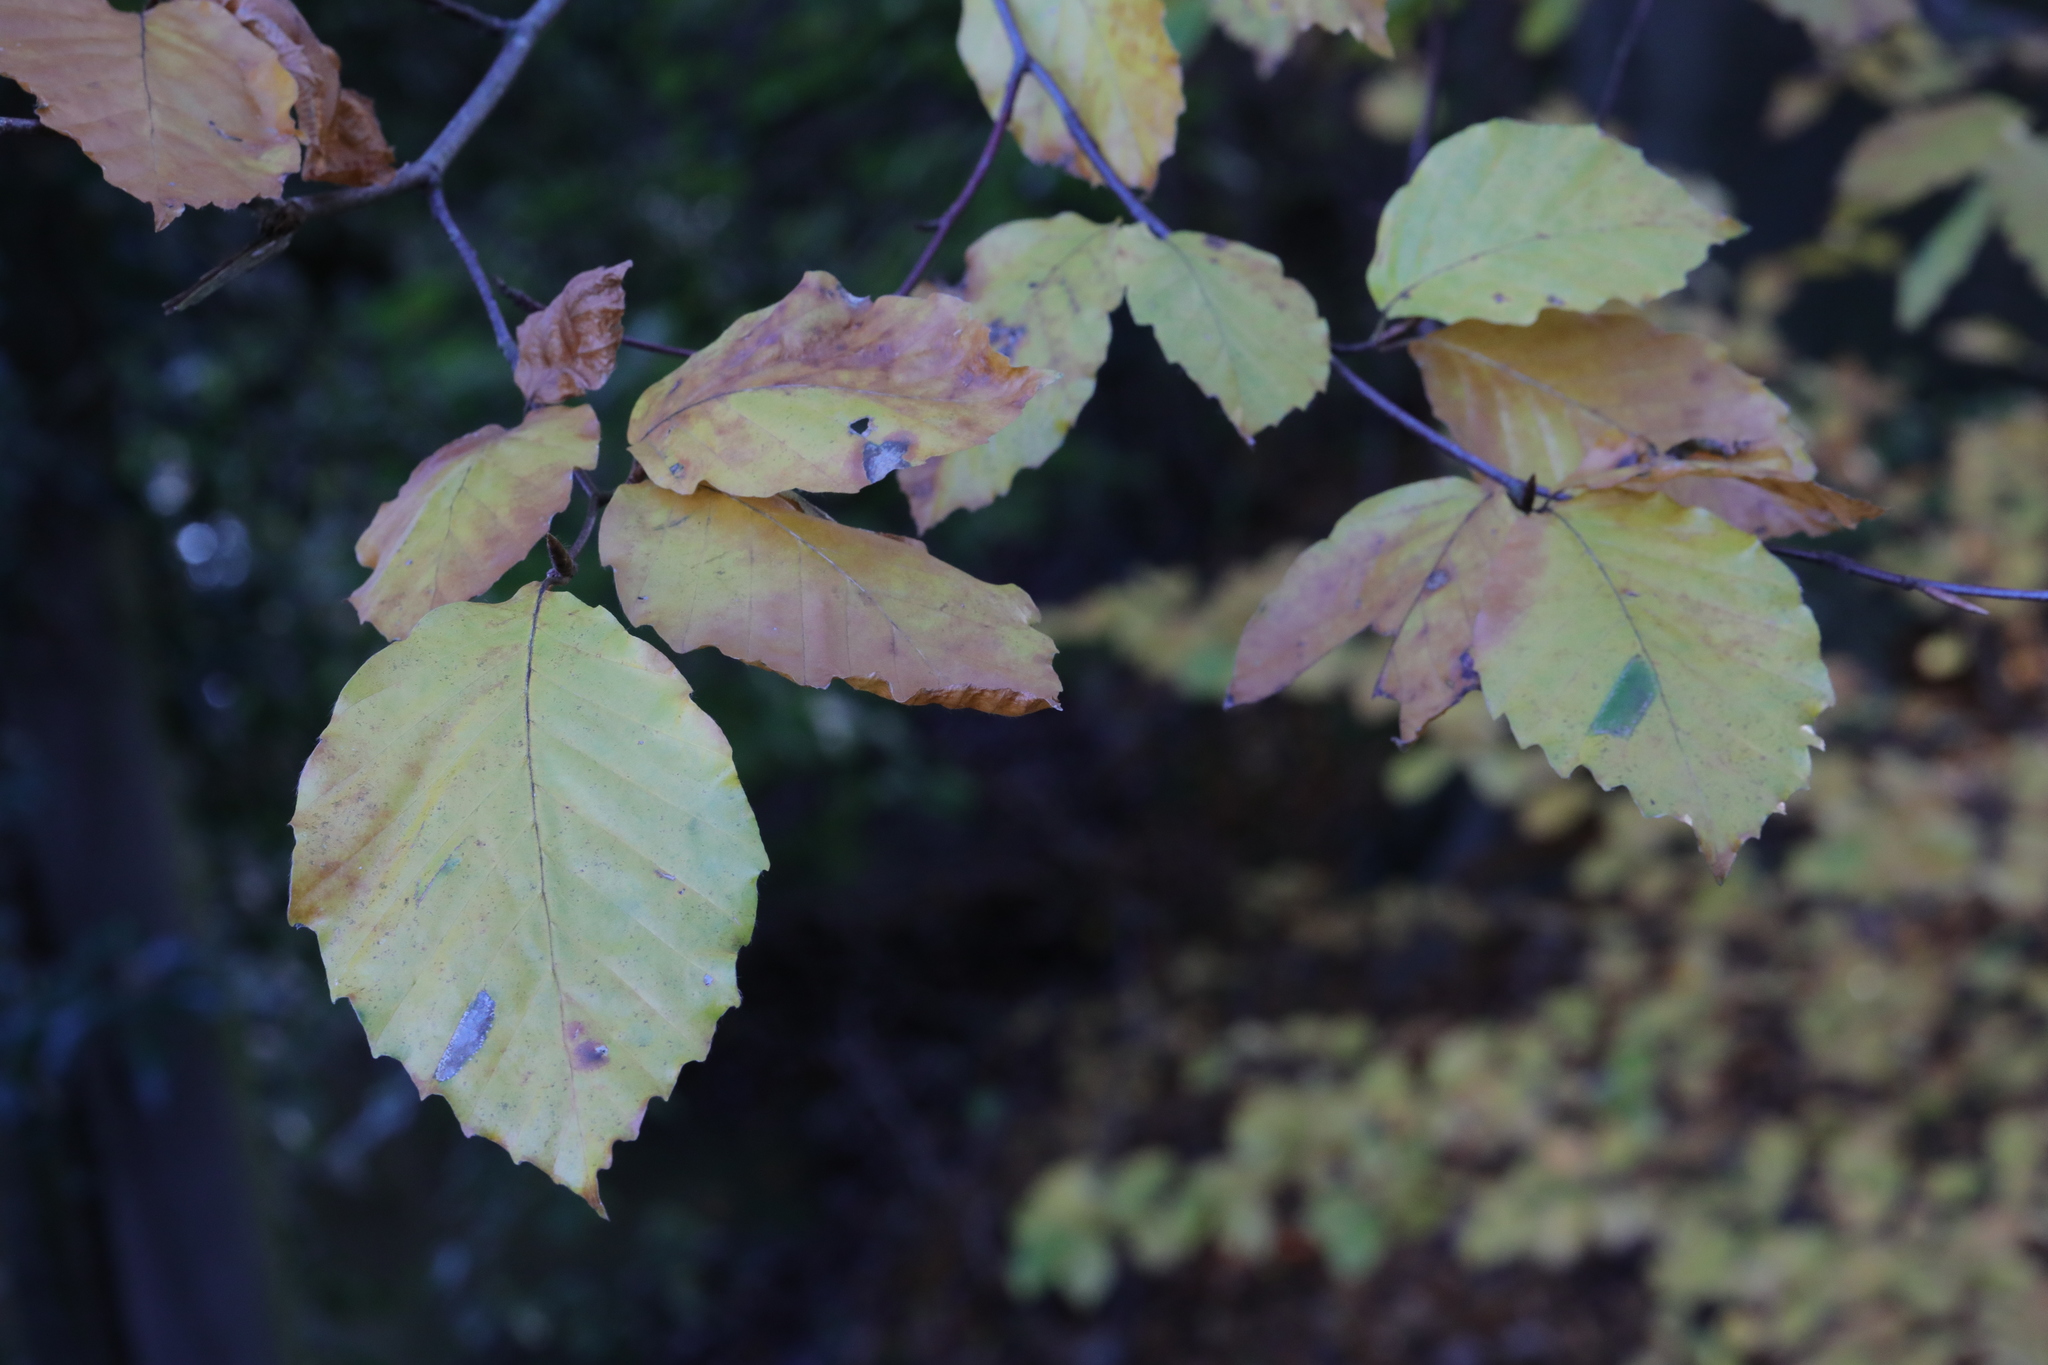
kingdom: Plantae
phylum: Tracheophyta
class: Magnoliopsida
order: Fagales
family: Fagaceae
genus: Fagus
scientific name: Fagus sylvatica
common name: Beech
